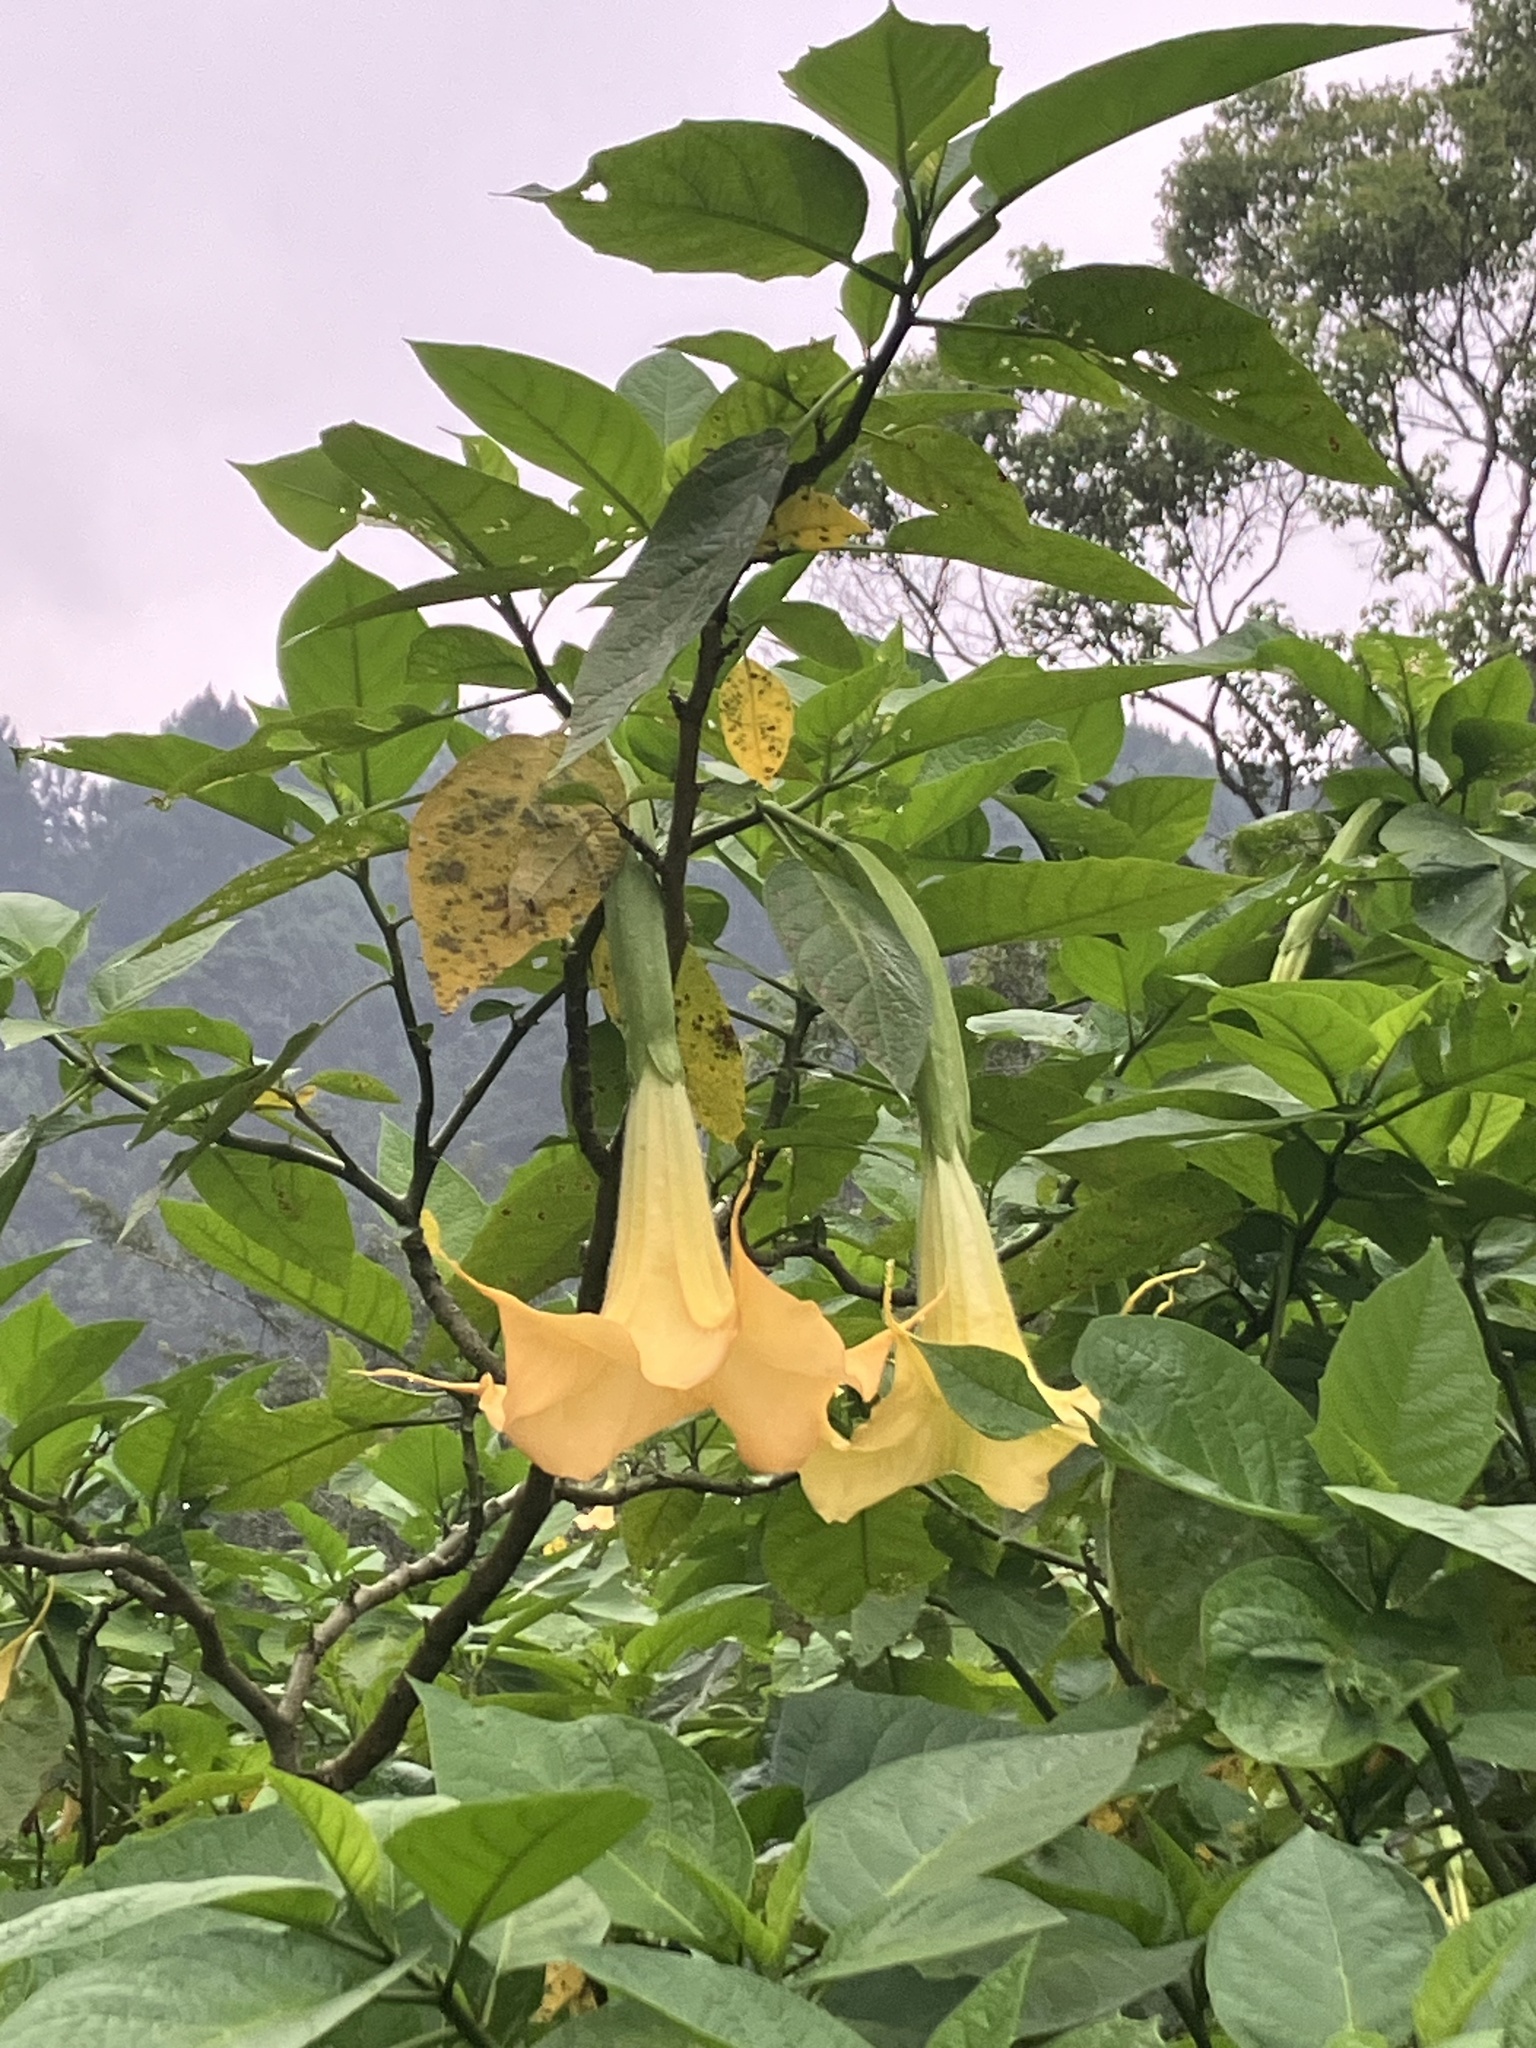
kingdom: Plantae
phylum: Tracheophyta
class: Magnoliopsida
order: Solanales
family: Solanaceae
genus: Brugmansia
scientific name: Brugmansia aurea
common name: Yellow angel's-trumpet
